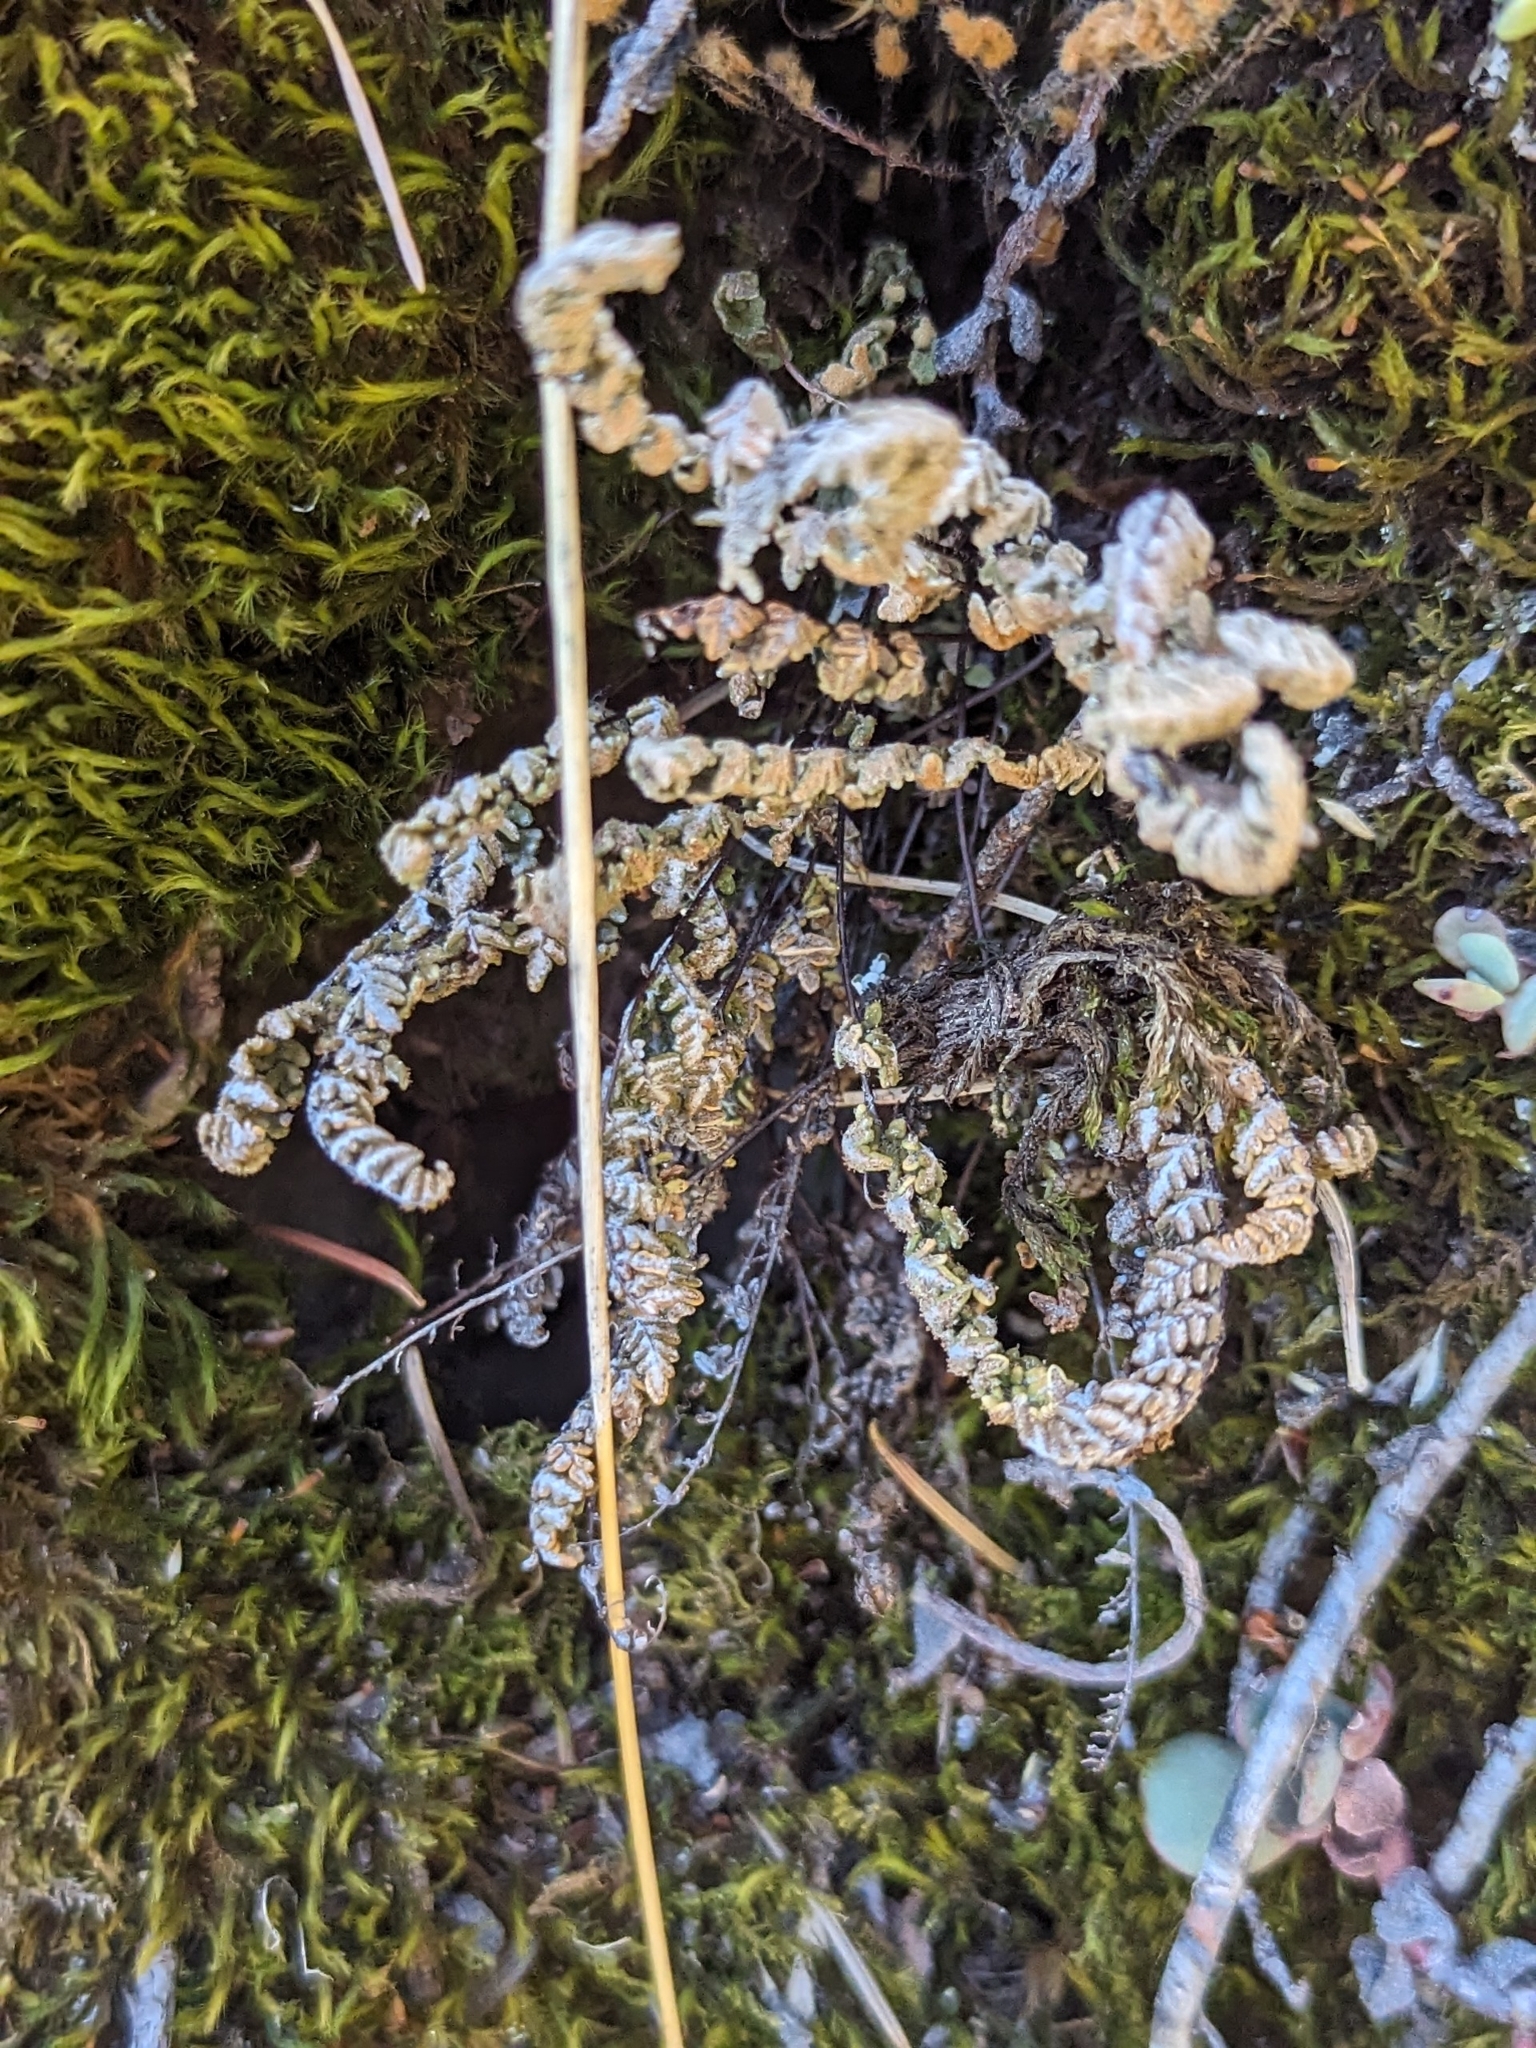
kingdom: Plantae
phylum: Tracheophyta
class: Polypodiopsida
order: Polypodiales
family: Pteridaceae
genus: Myriopteris
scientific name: Myriopteris gracillima
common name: Lace fern
